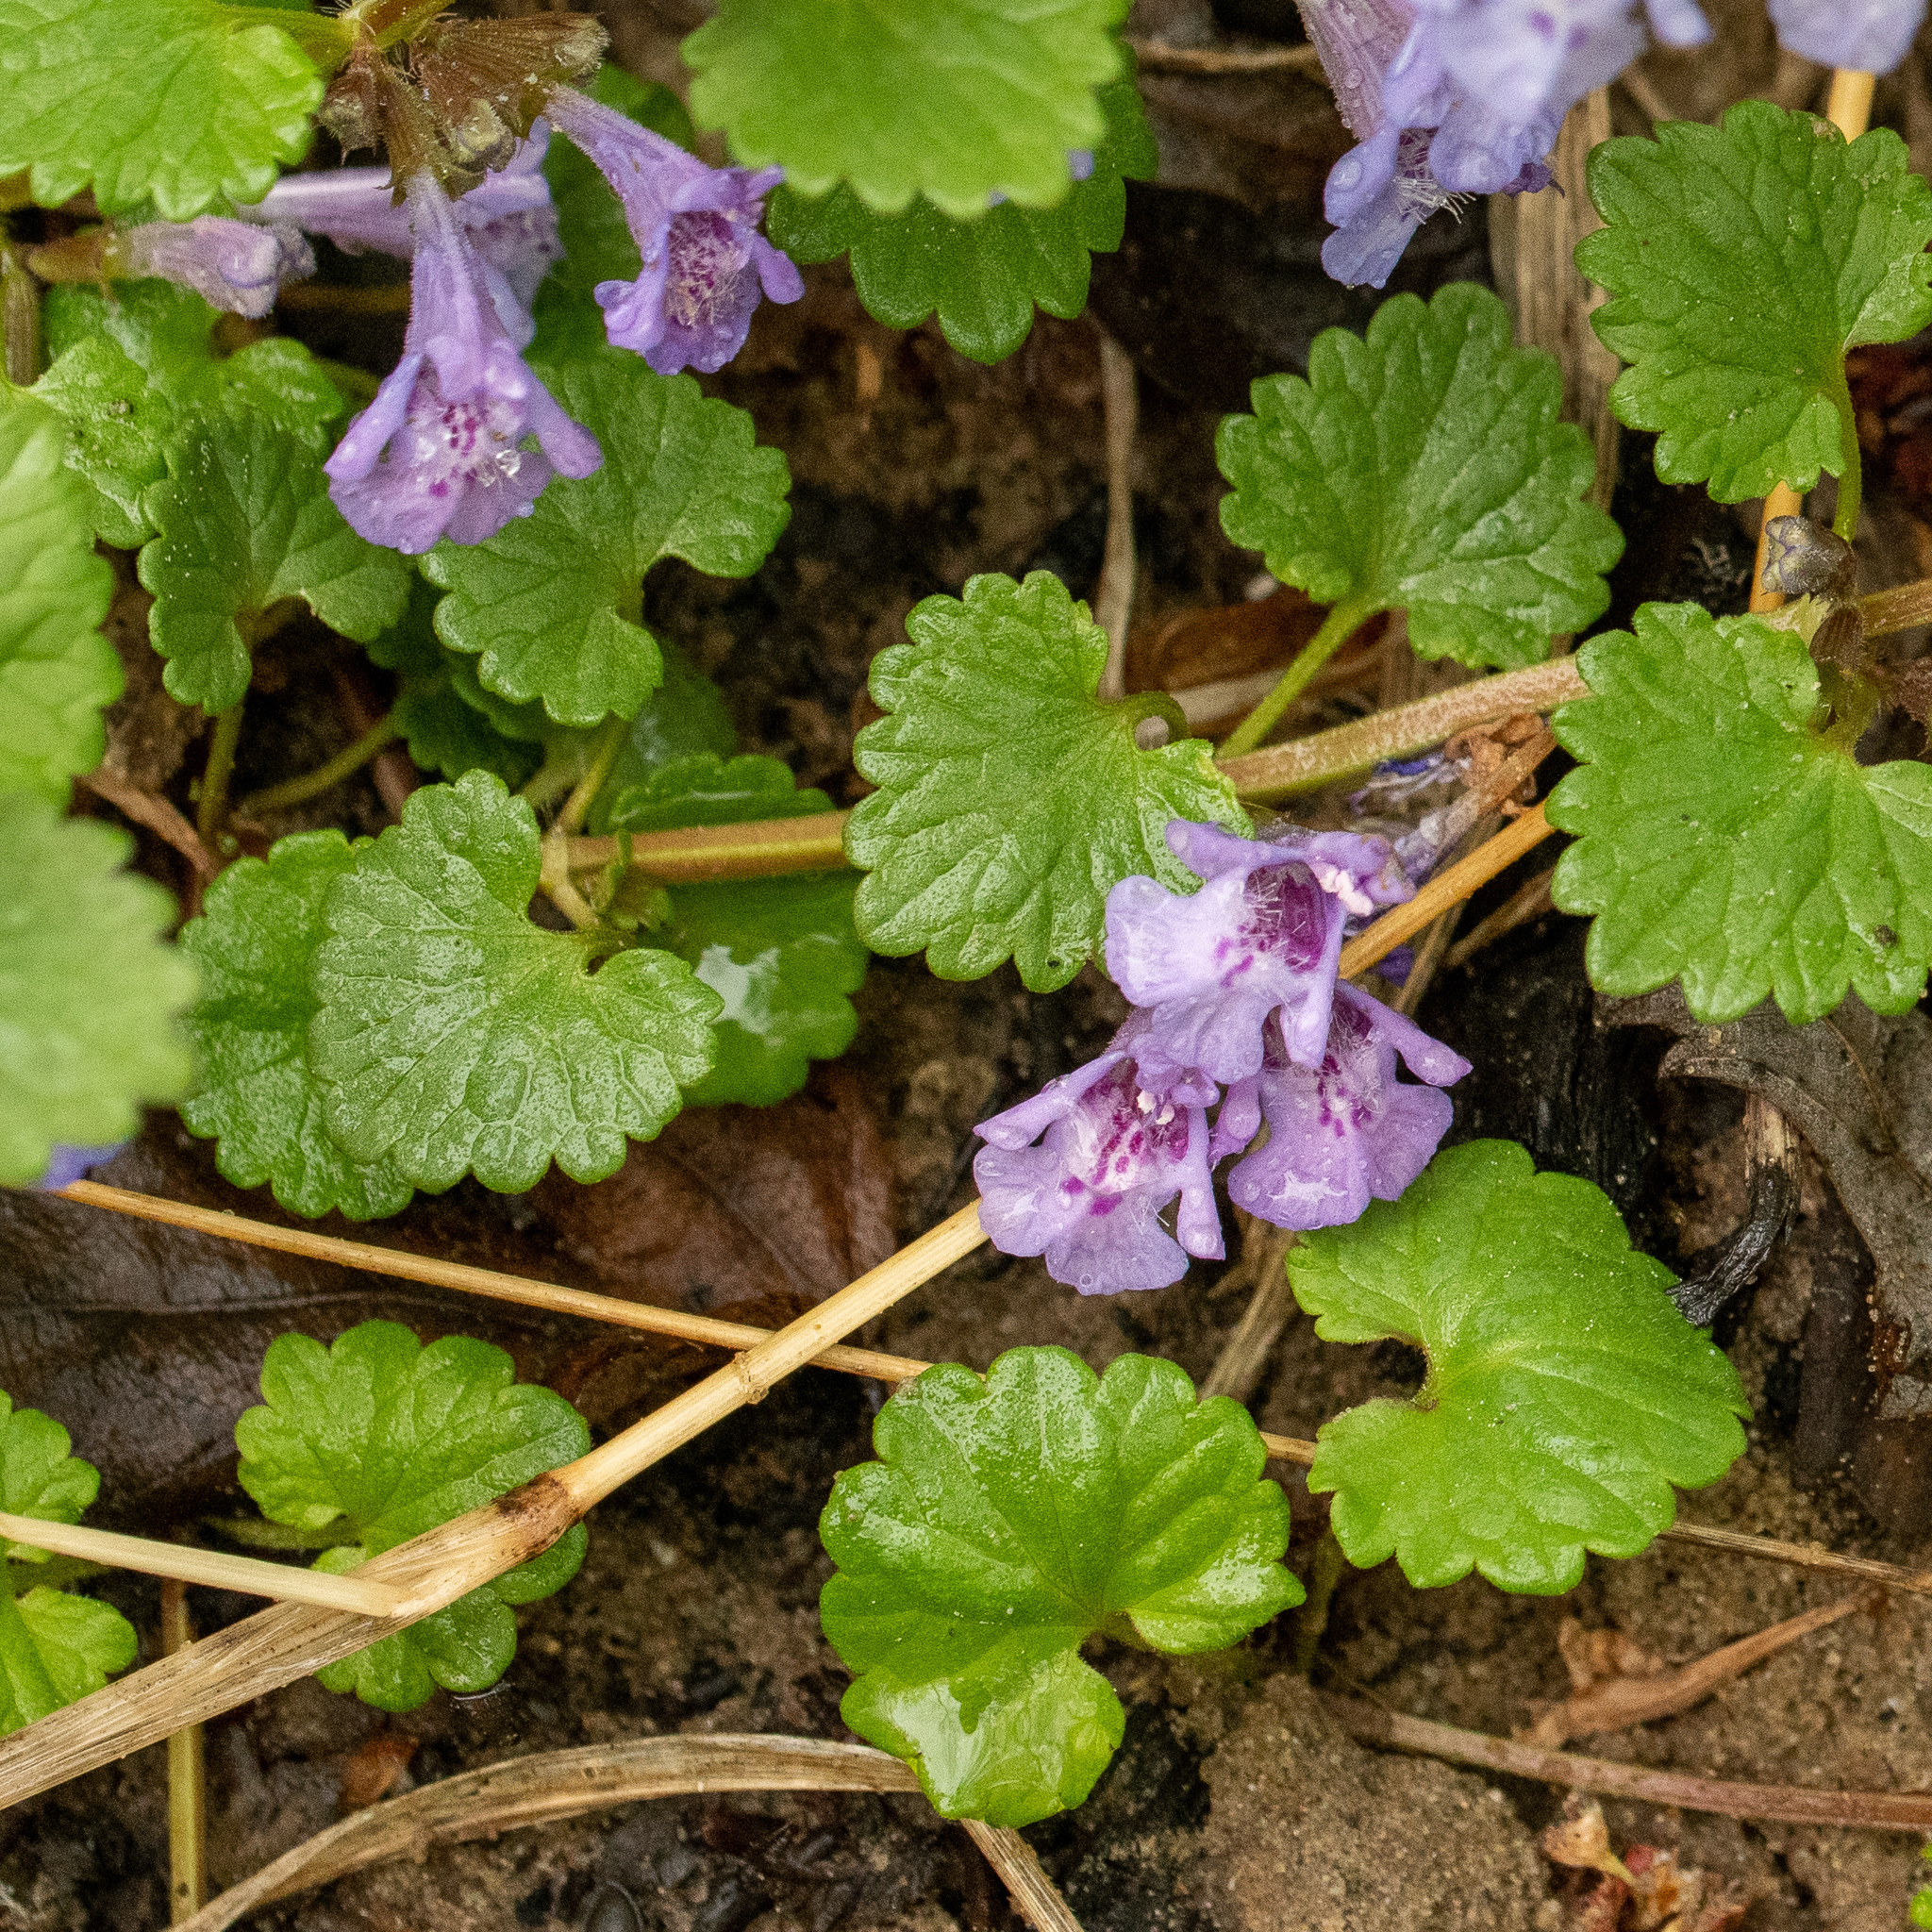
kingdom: Plantae
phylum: Tracheophyta
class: Magnoliopsida
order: Lamiales
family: Lamiaceae
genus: Glechoma
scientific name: Glechoma hederacea
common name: Ground ivy
